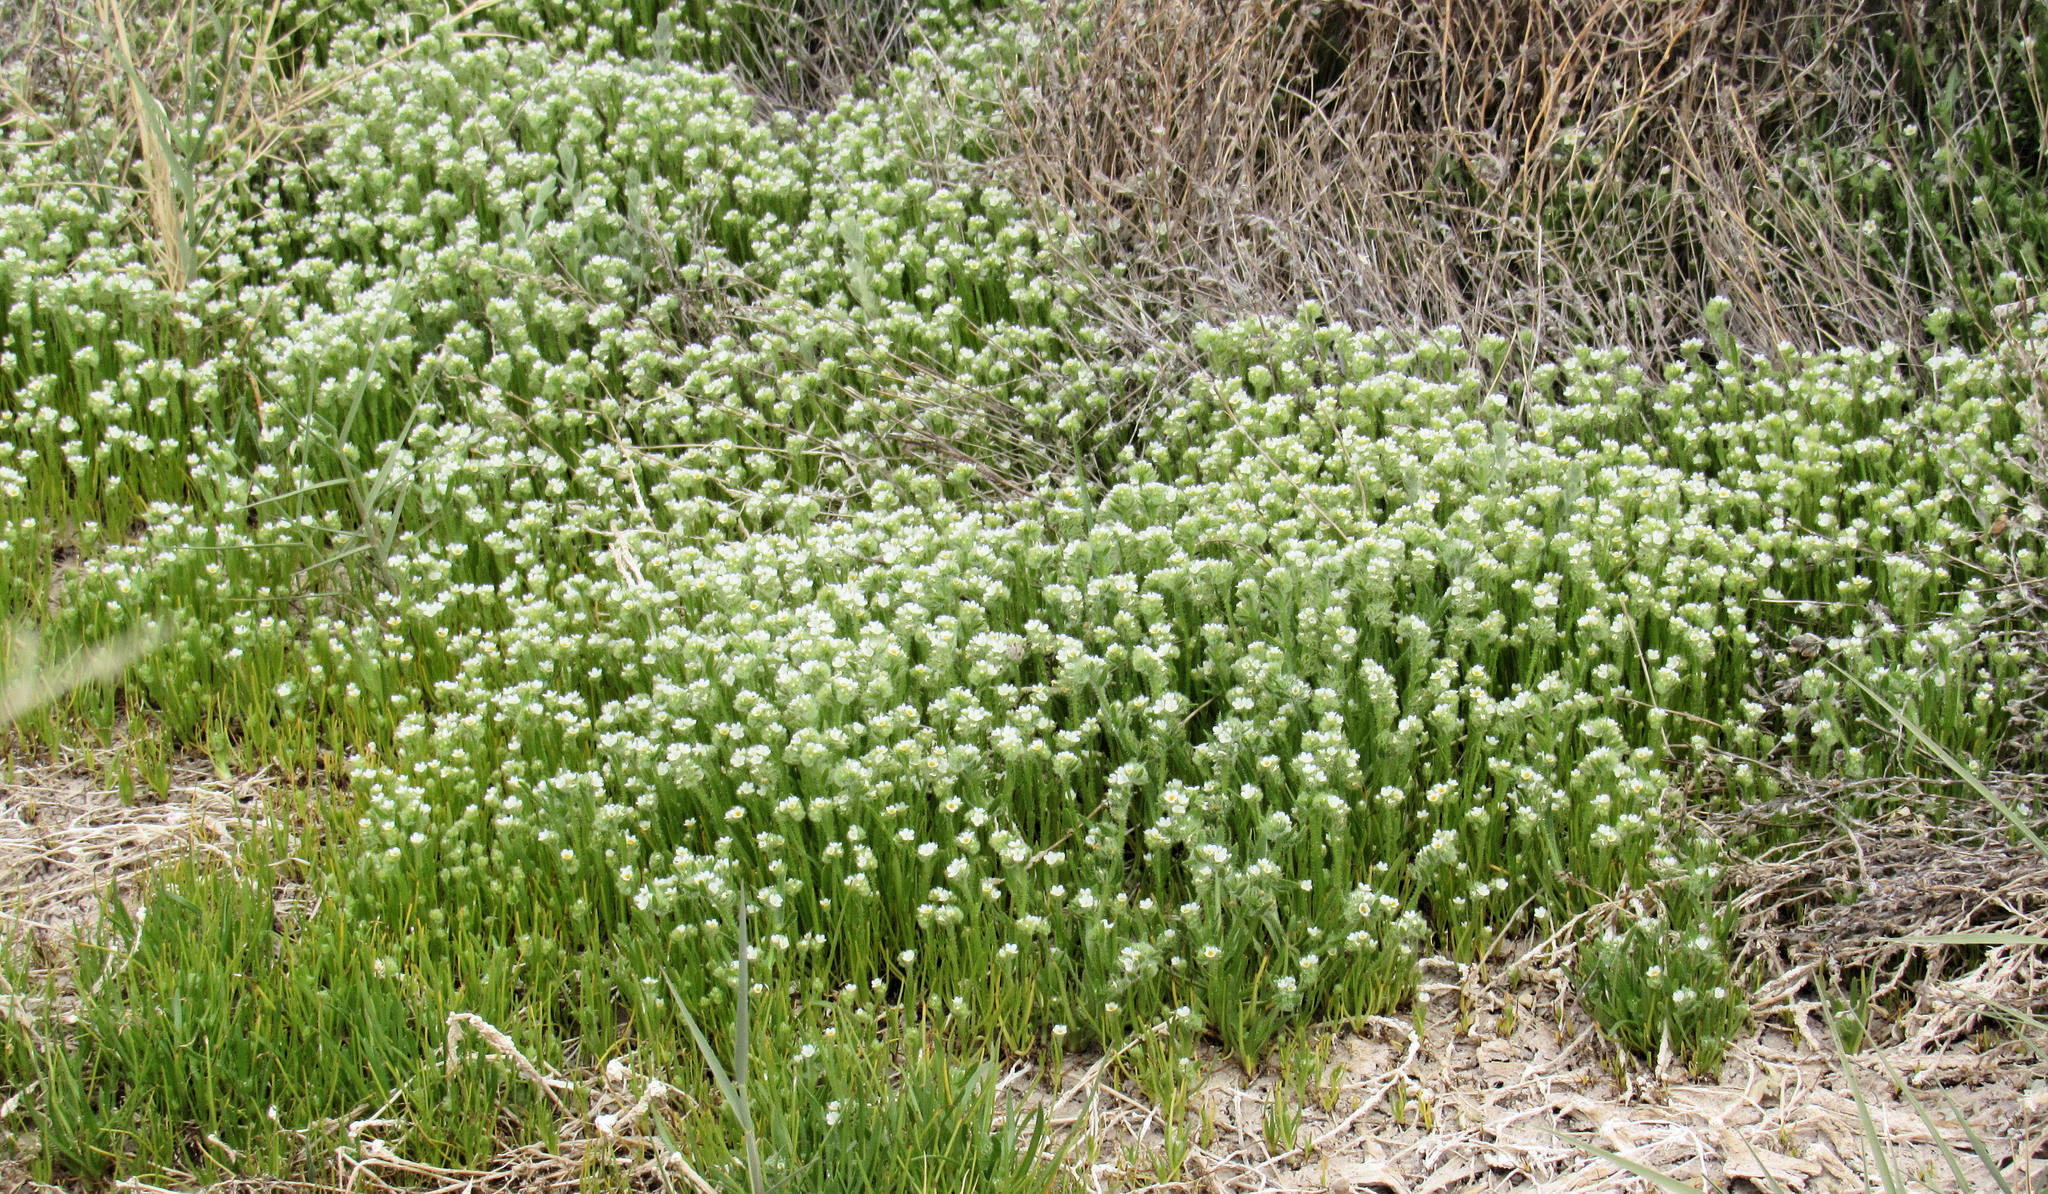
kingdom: Plantae
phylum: Tracheophyta
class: Magnoliopsida
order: Boraginales
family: Boraginaceae
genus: Plagiobothrys
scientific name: Plagiobothrys salsus
